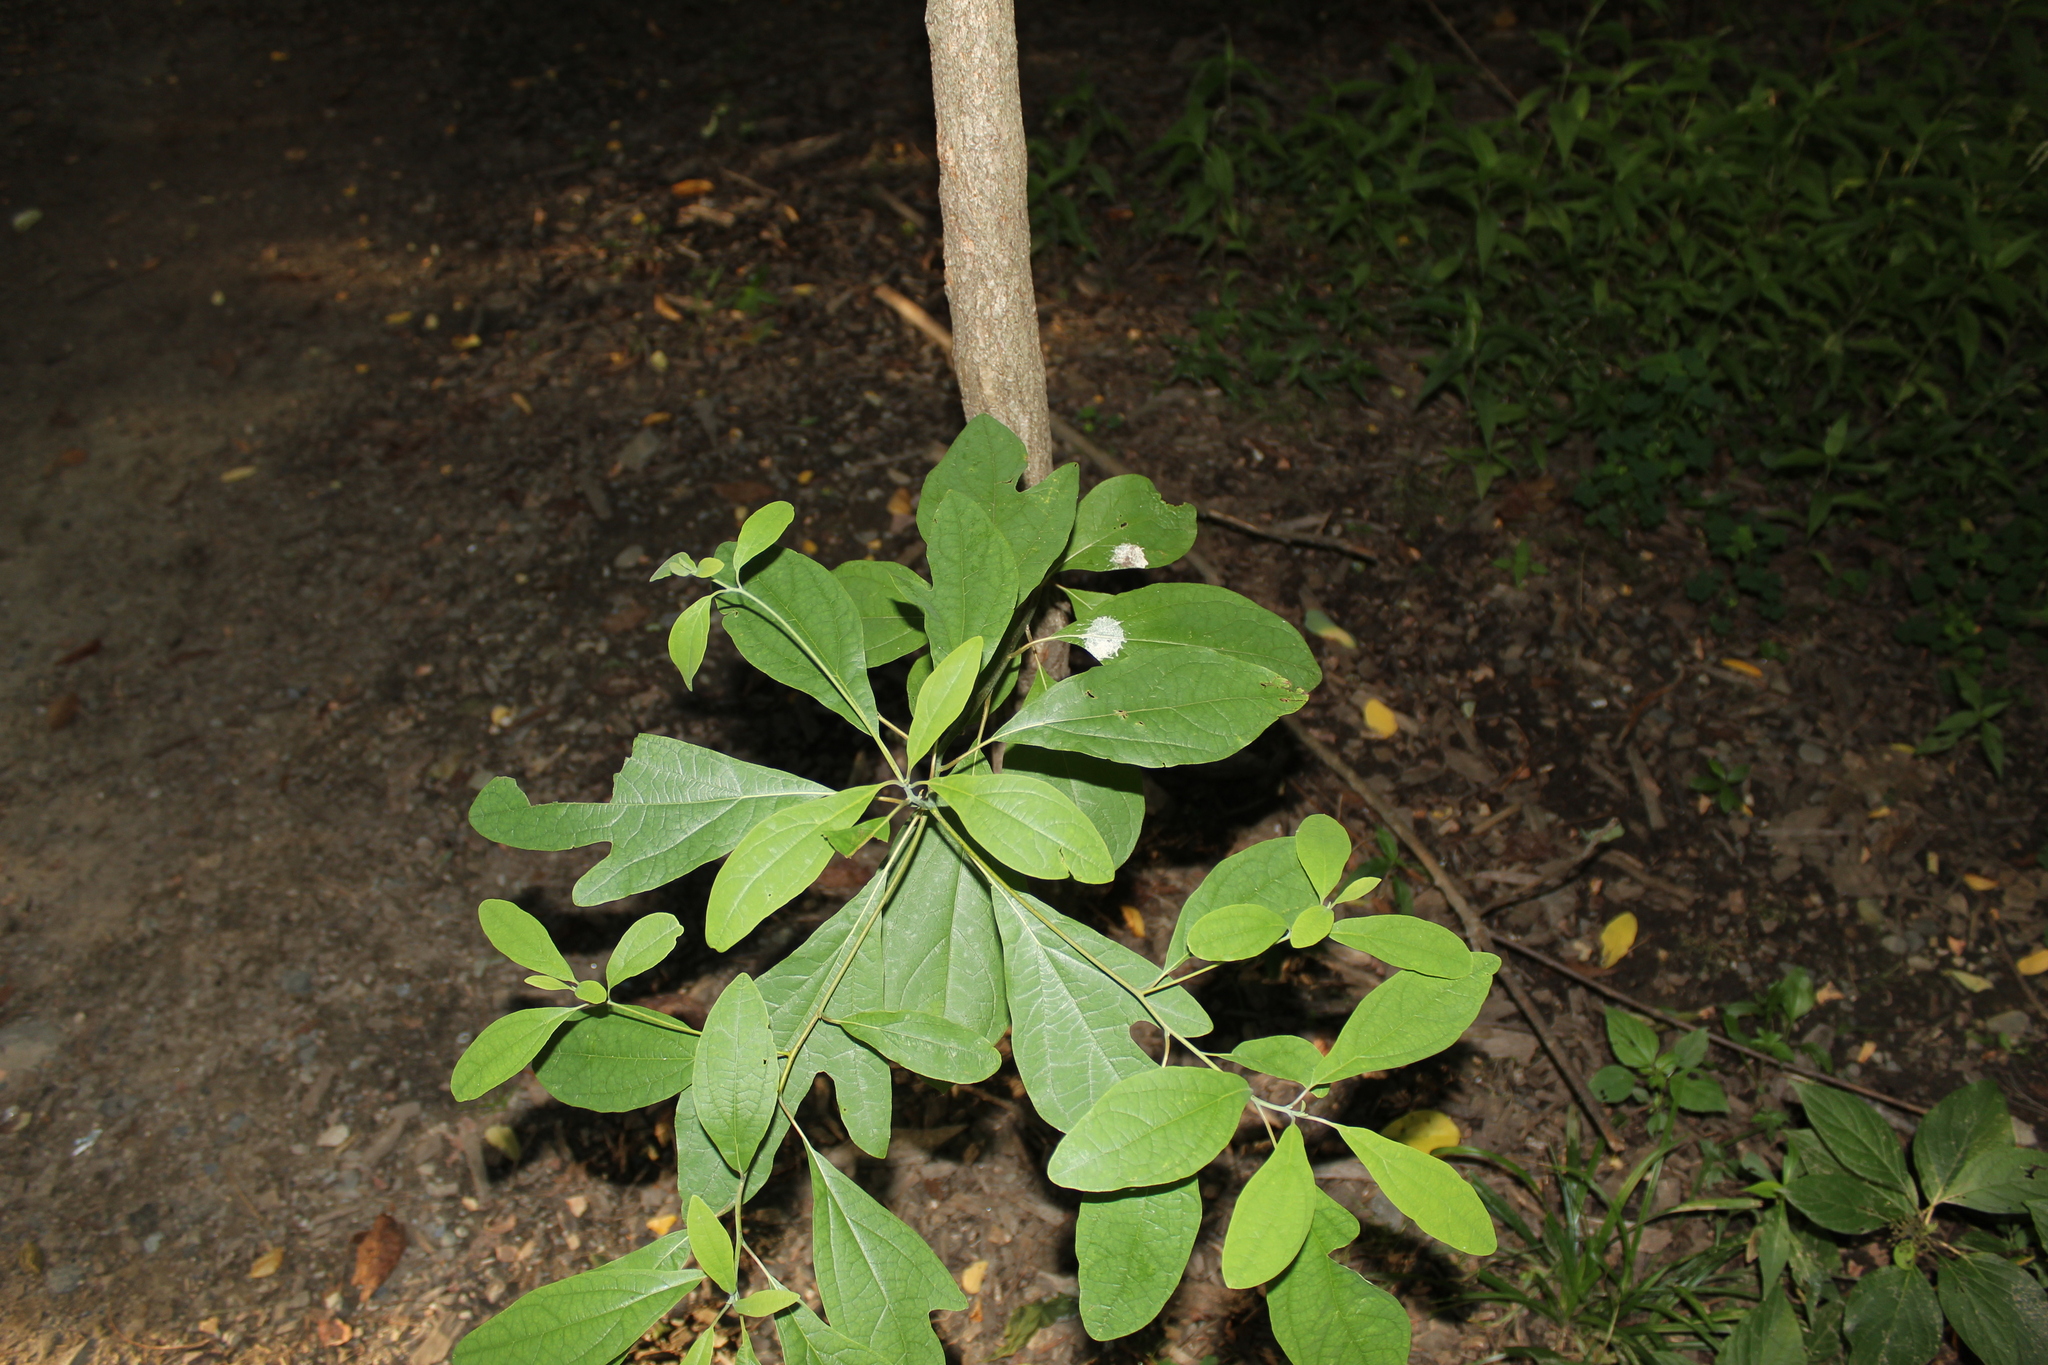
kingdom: Plantae
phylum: Tracheophyta
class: Magnoliopsida
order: Laurales
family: Lauraceae
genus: Sassafras
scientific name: Sassafras albidum
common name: Sassafras
